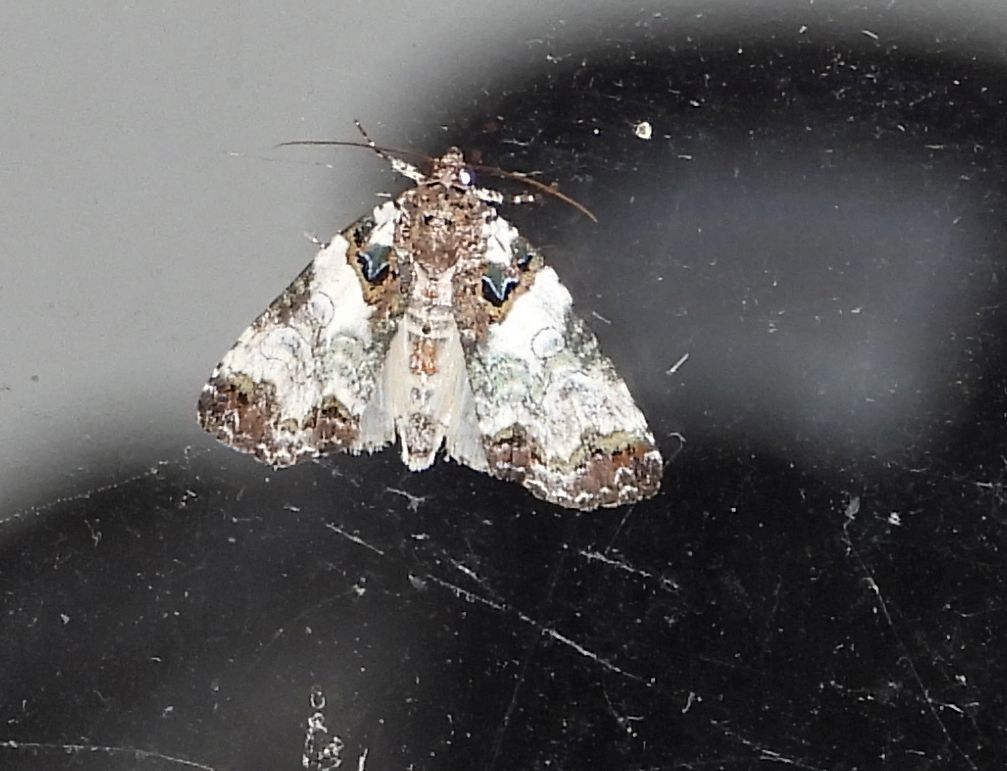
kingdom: Animalia
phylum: Arthropoda
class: Insecta
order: Lepidoptera
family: Geometridae
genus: Euphyia
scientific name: Euphyia intermediata
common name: Sharp-angled carpet
